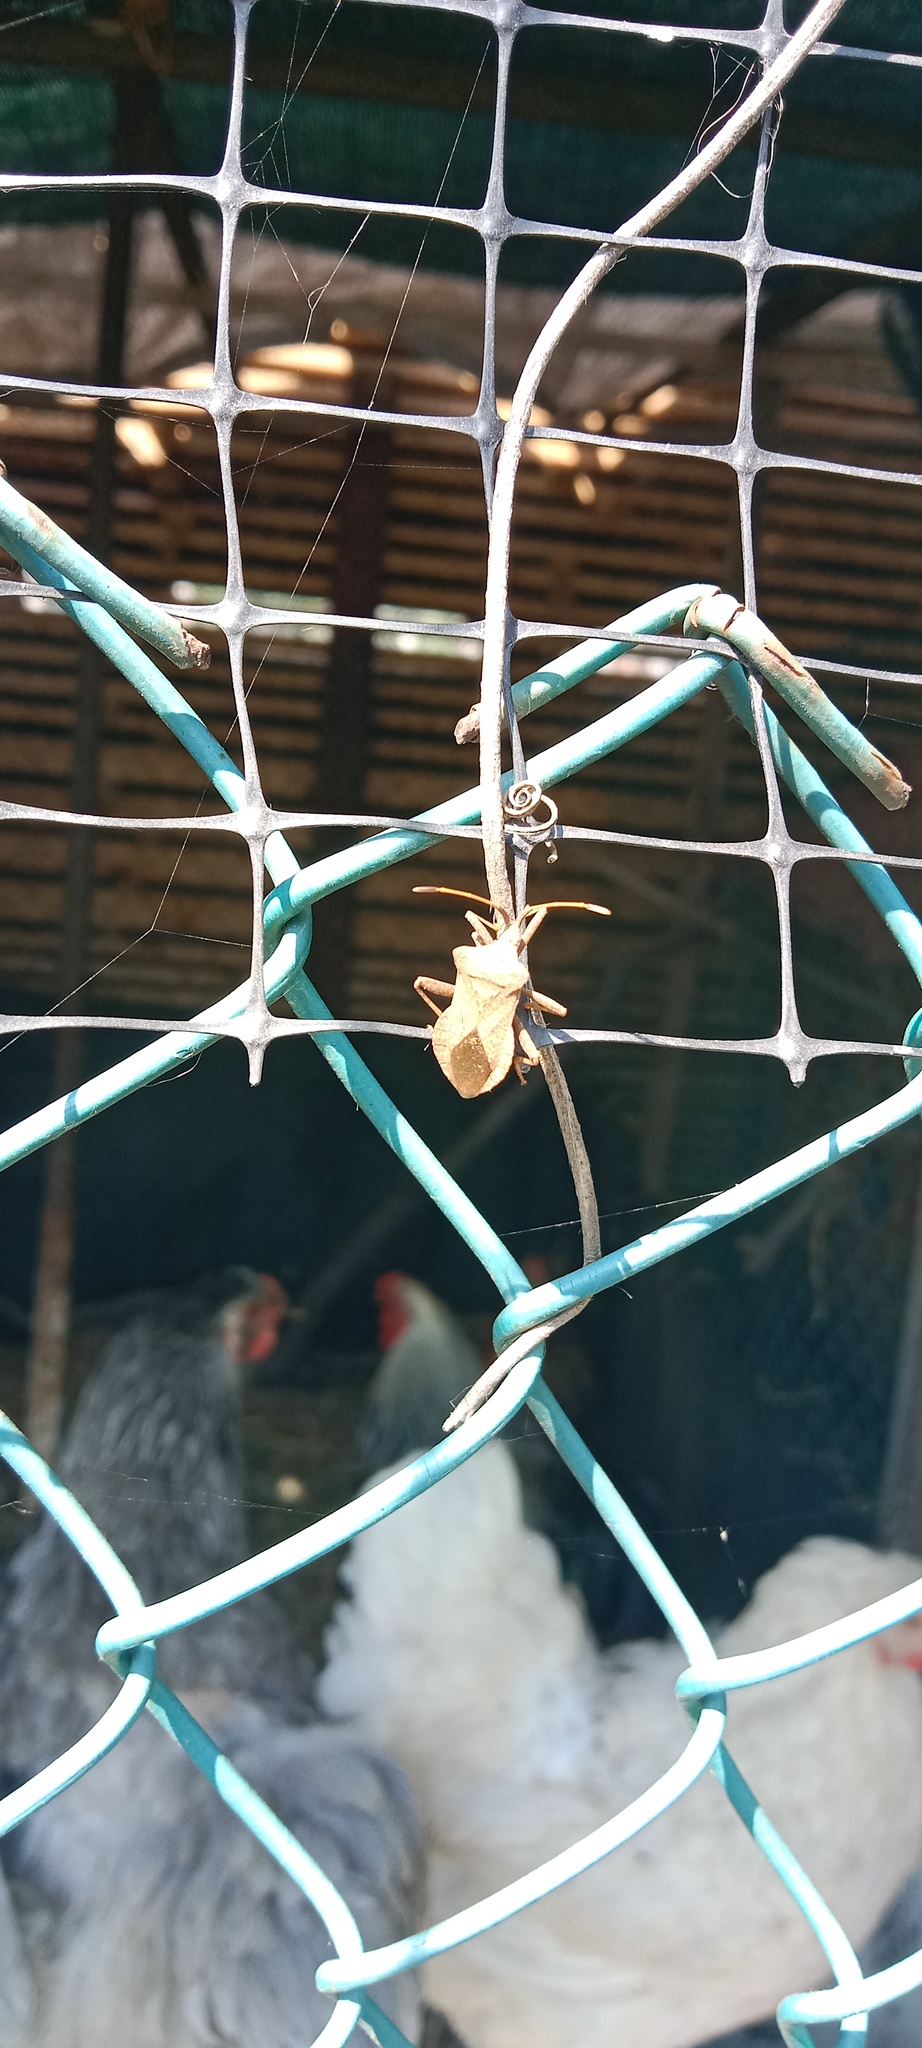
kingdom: Animalia
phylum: Arthropoda
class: Insecta
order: Hemiptera
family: Coreidae
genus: Coreus
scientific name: Coreus marginatus
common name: Dock bug
